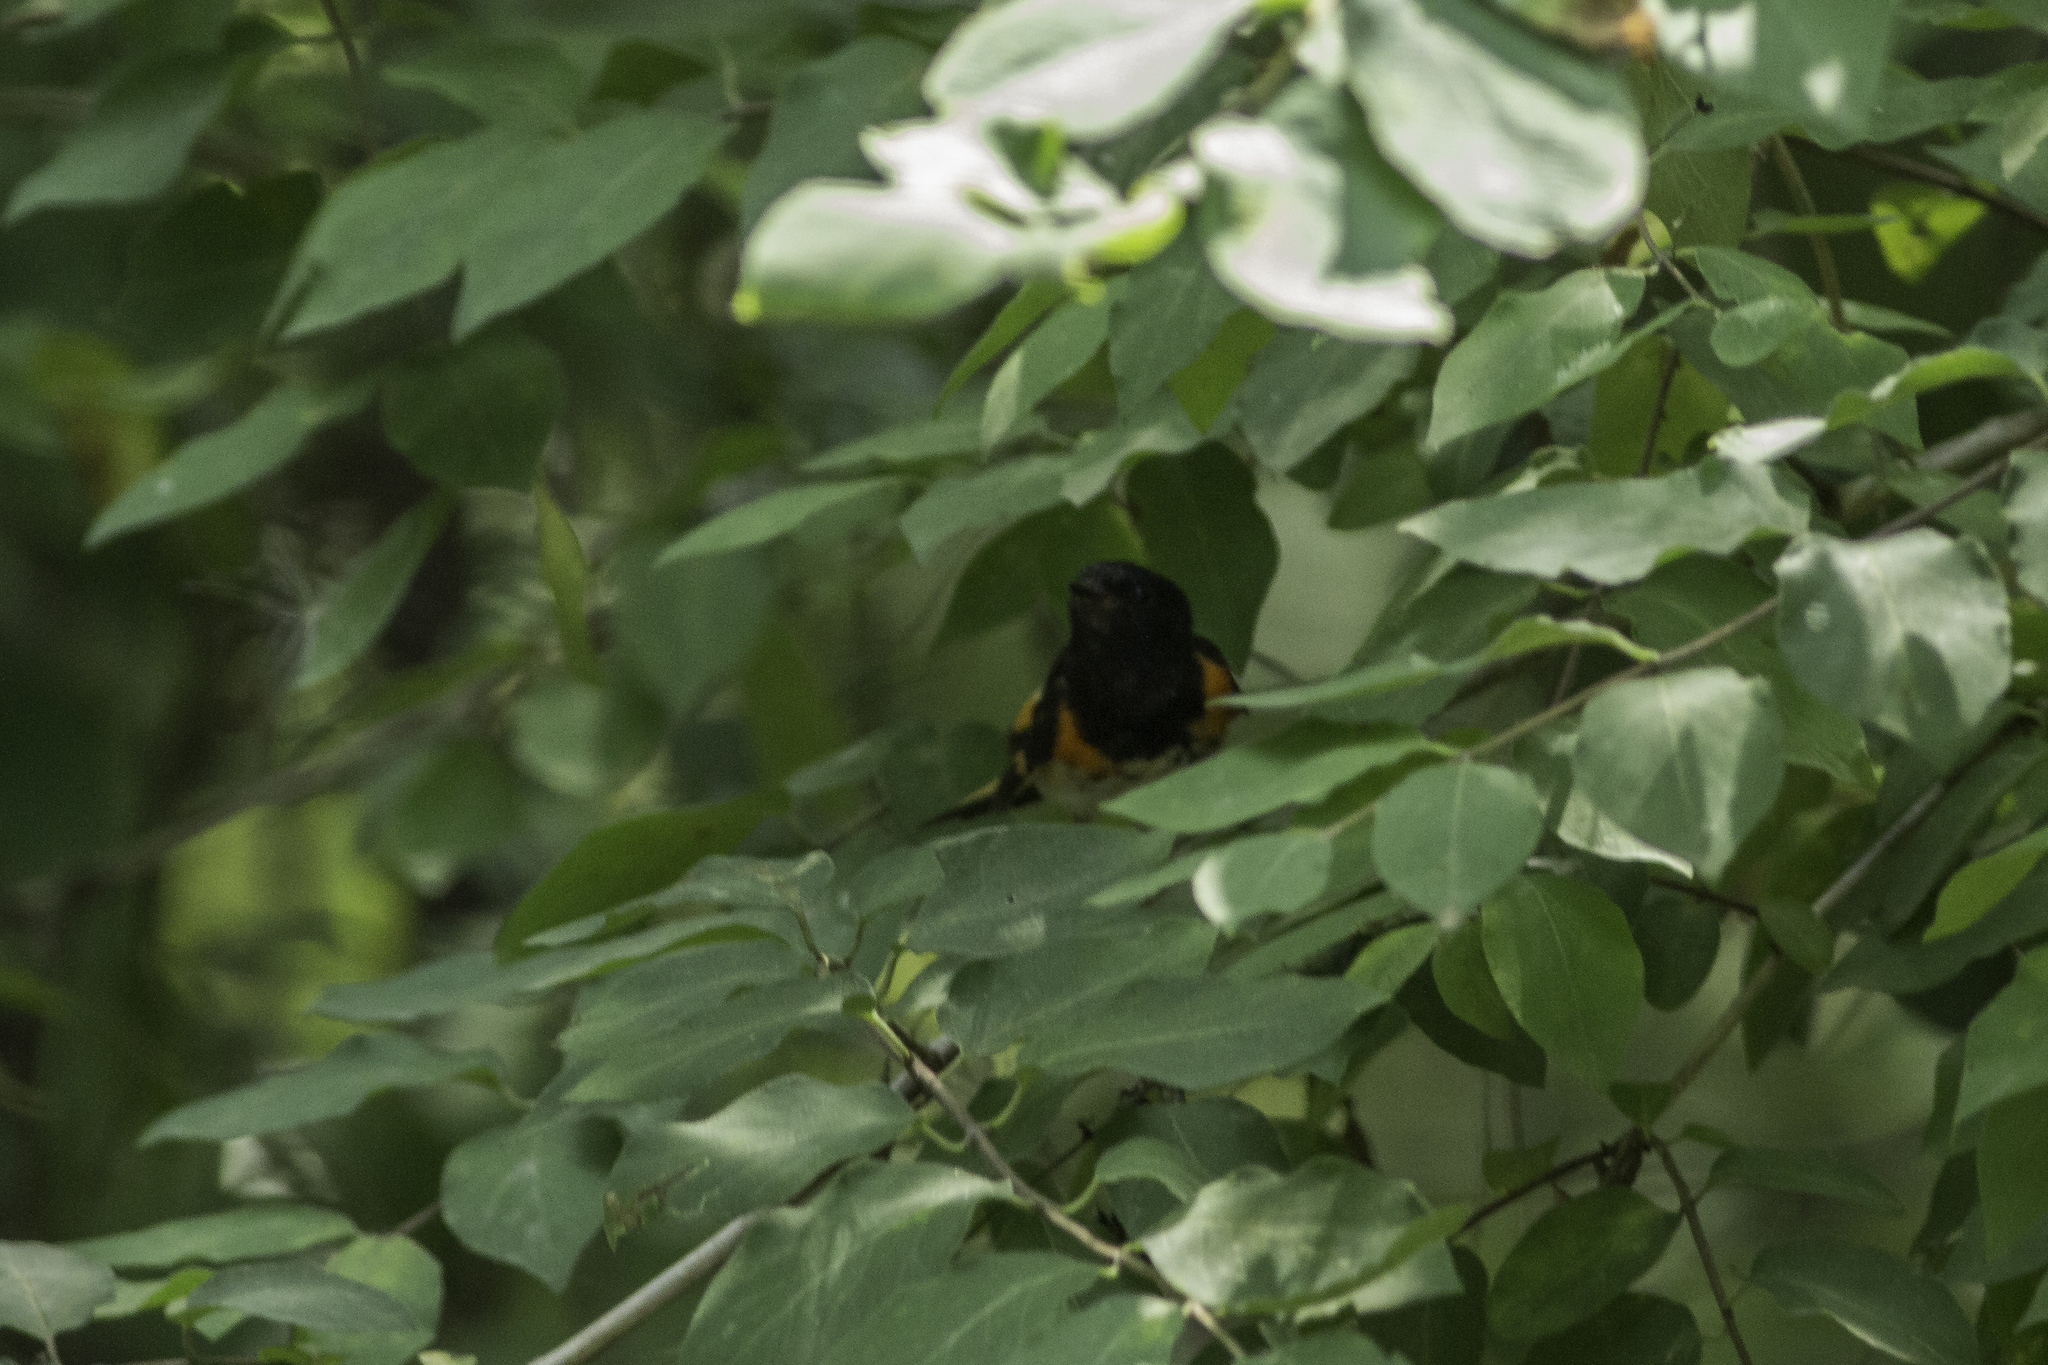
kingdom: Animalia
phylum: Chordata
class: Aves
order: Passeriformes
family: Parulidae
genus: Setophaga
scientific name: Setophaga ruticilla
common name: American redstart
